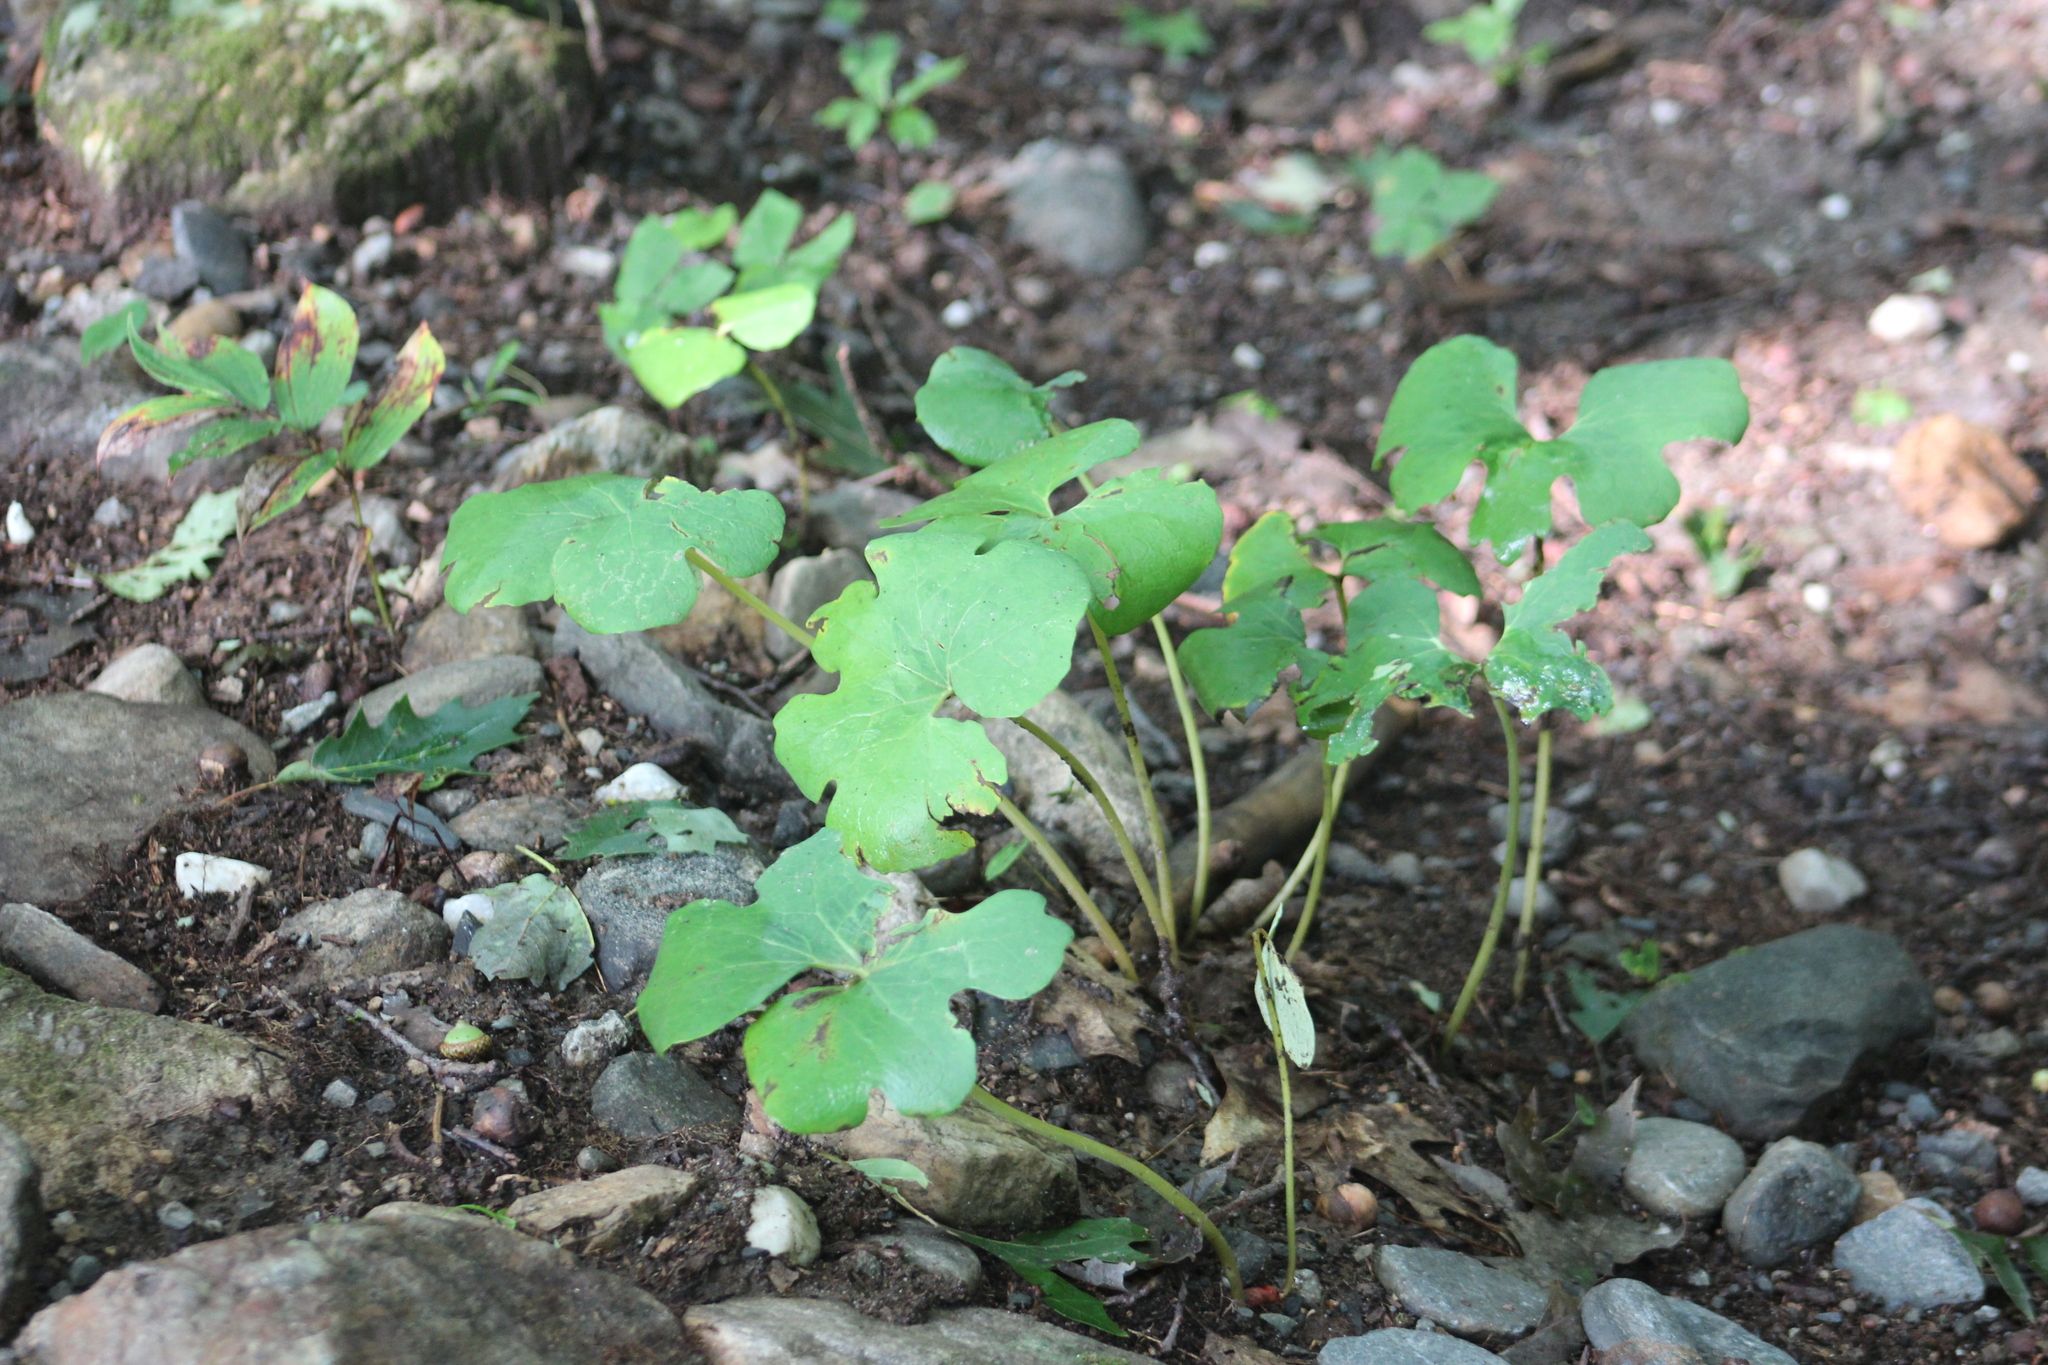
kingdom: Plantae
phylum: Tracheophyta
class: Magnoliopsida
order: Ranunculales
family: Papaveraceae
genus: Sanguinaria
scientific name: Sanguinaria canadensis
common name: Bloodroot
